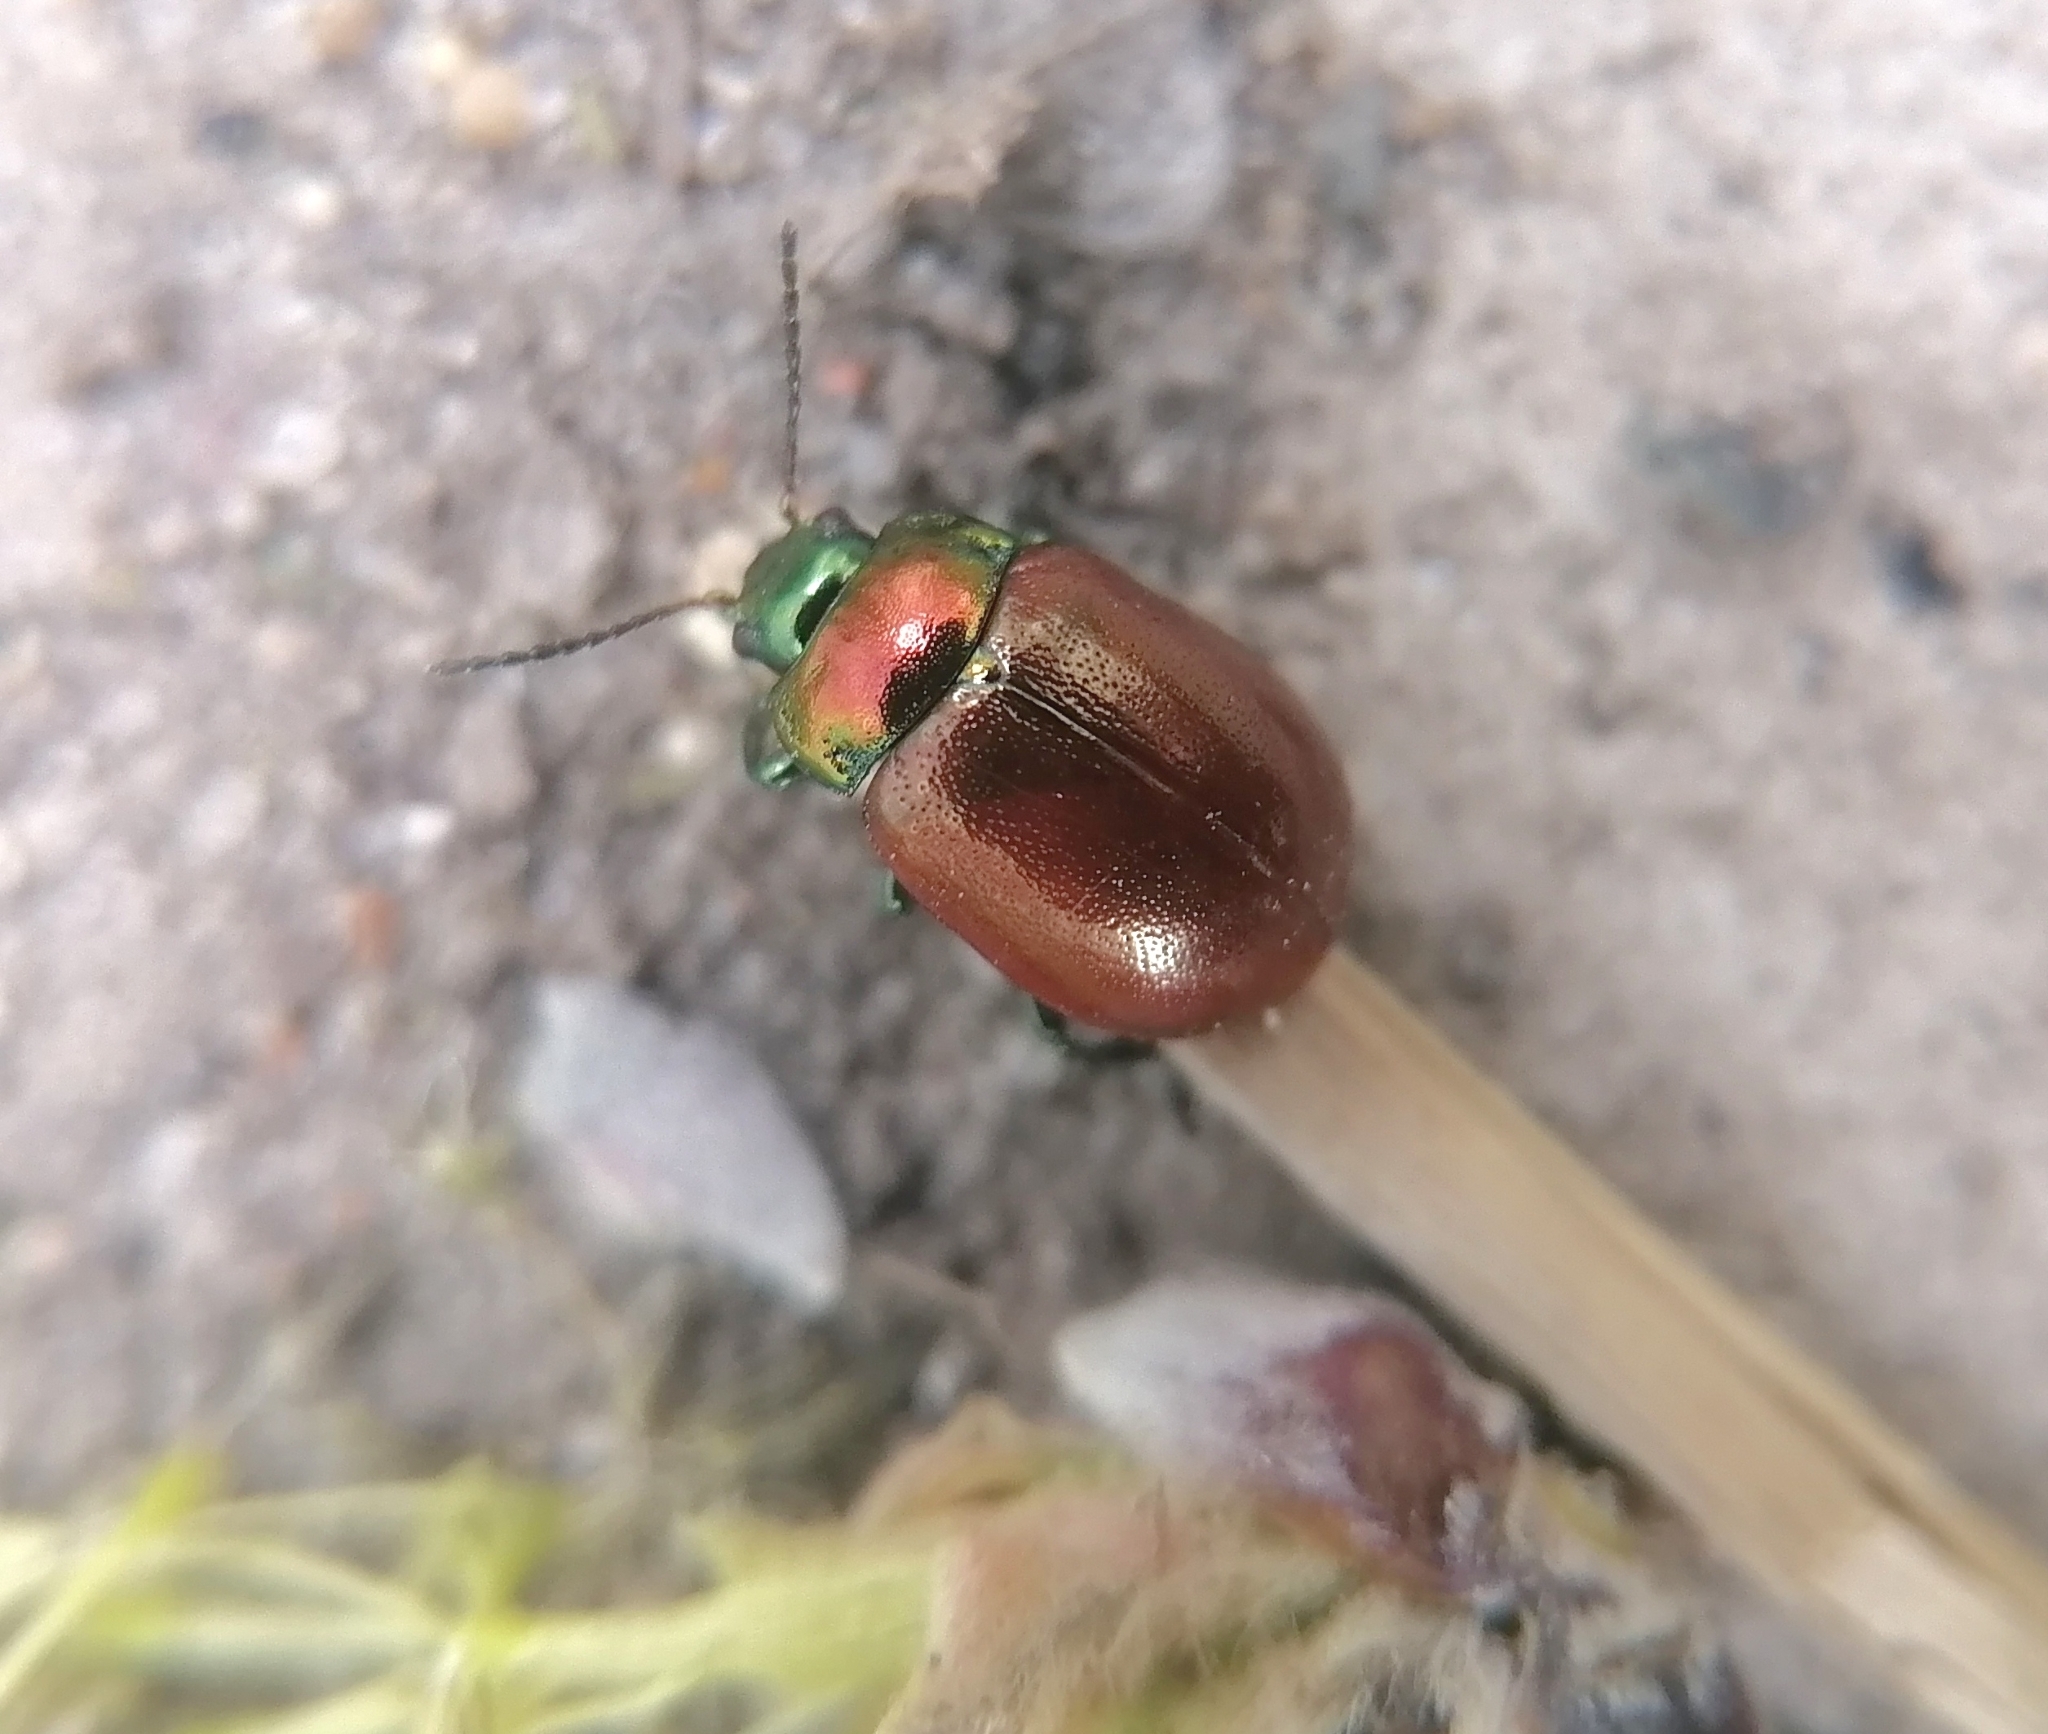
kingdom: Animalia
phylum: Arthropoda
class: Insecta
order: Coleoptera
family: Chrysomelidae
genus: Chrysomela
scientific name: Chrysomela polita
